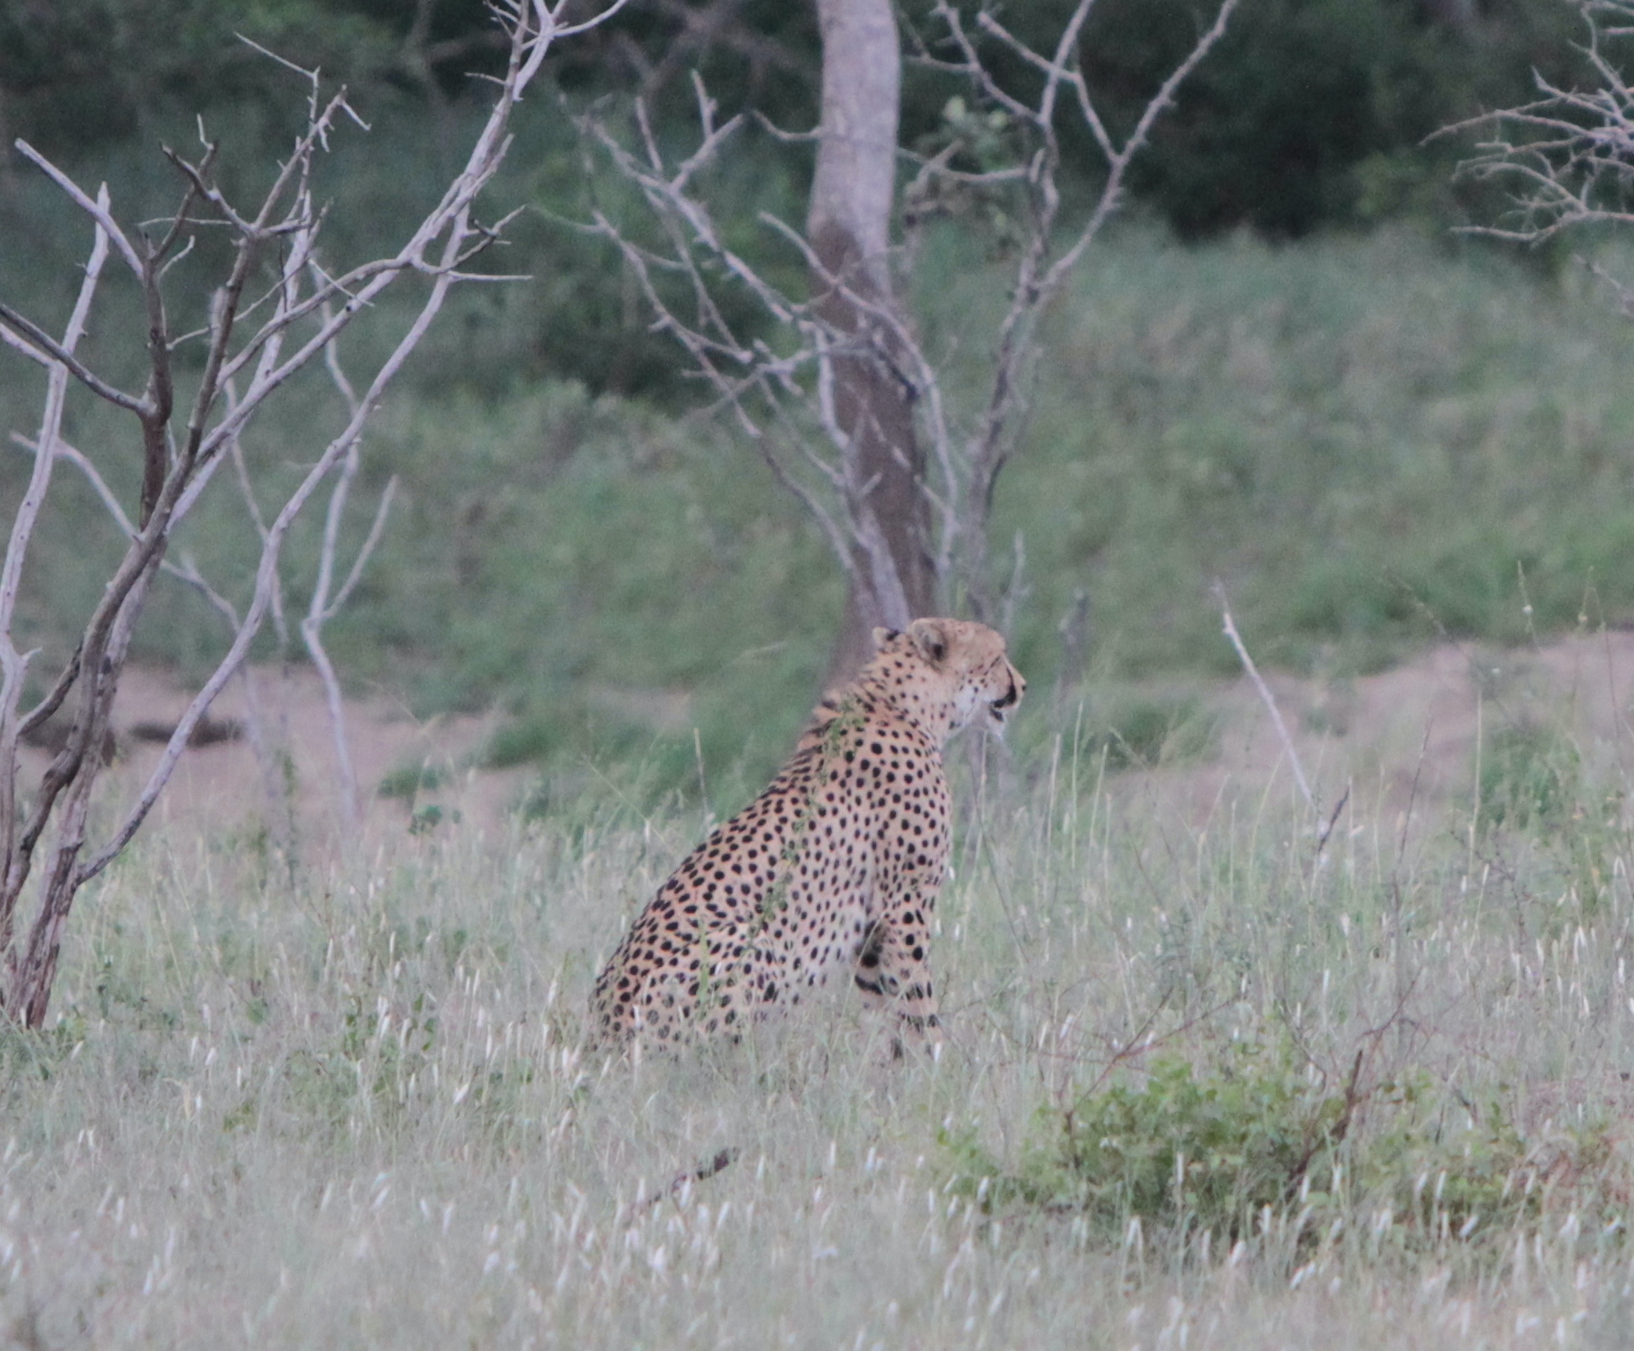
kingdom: Animalia
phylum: Chordata
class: Mammalia
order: Carnivora
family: Felidae
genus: Acinonyx
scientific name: Acinonyx jubatus
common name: Cheetah
